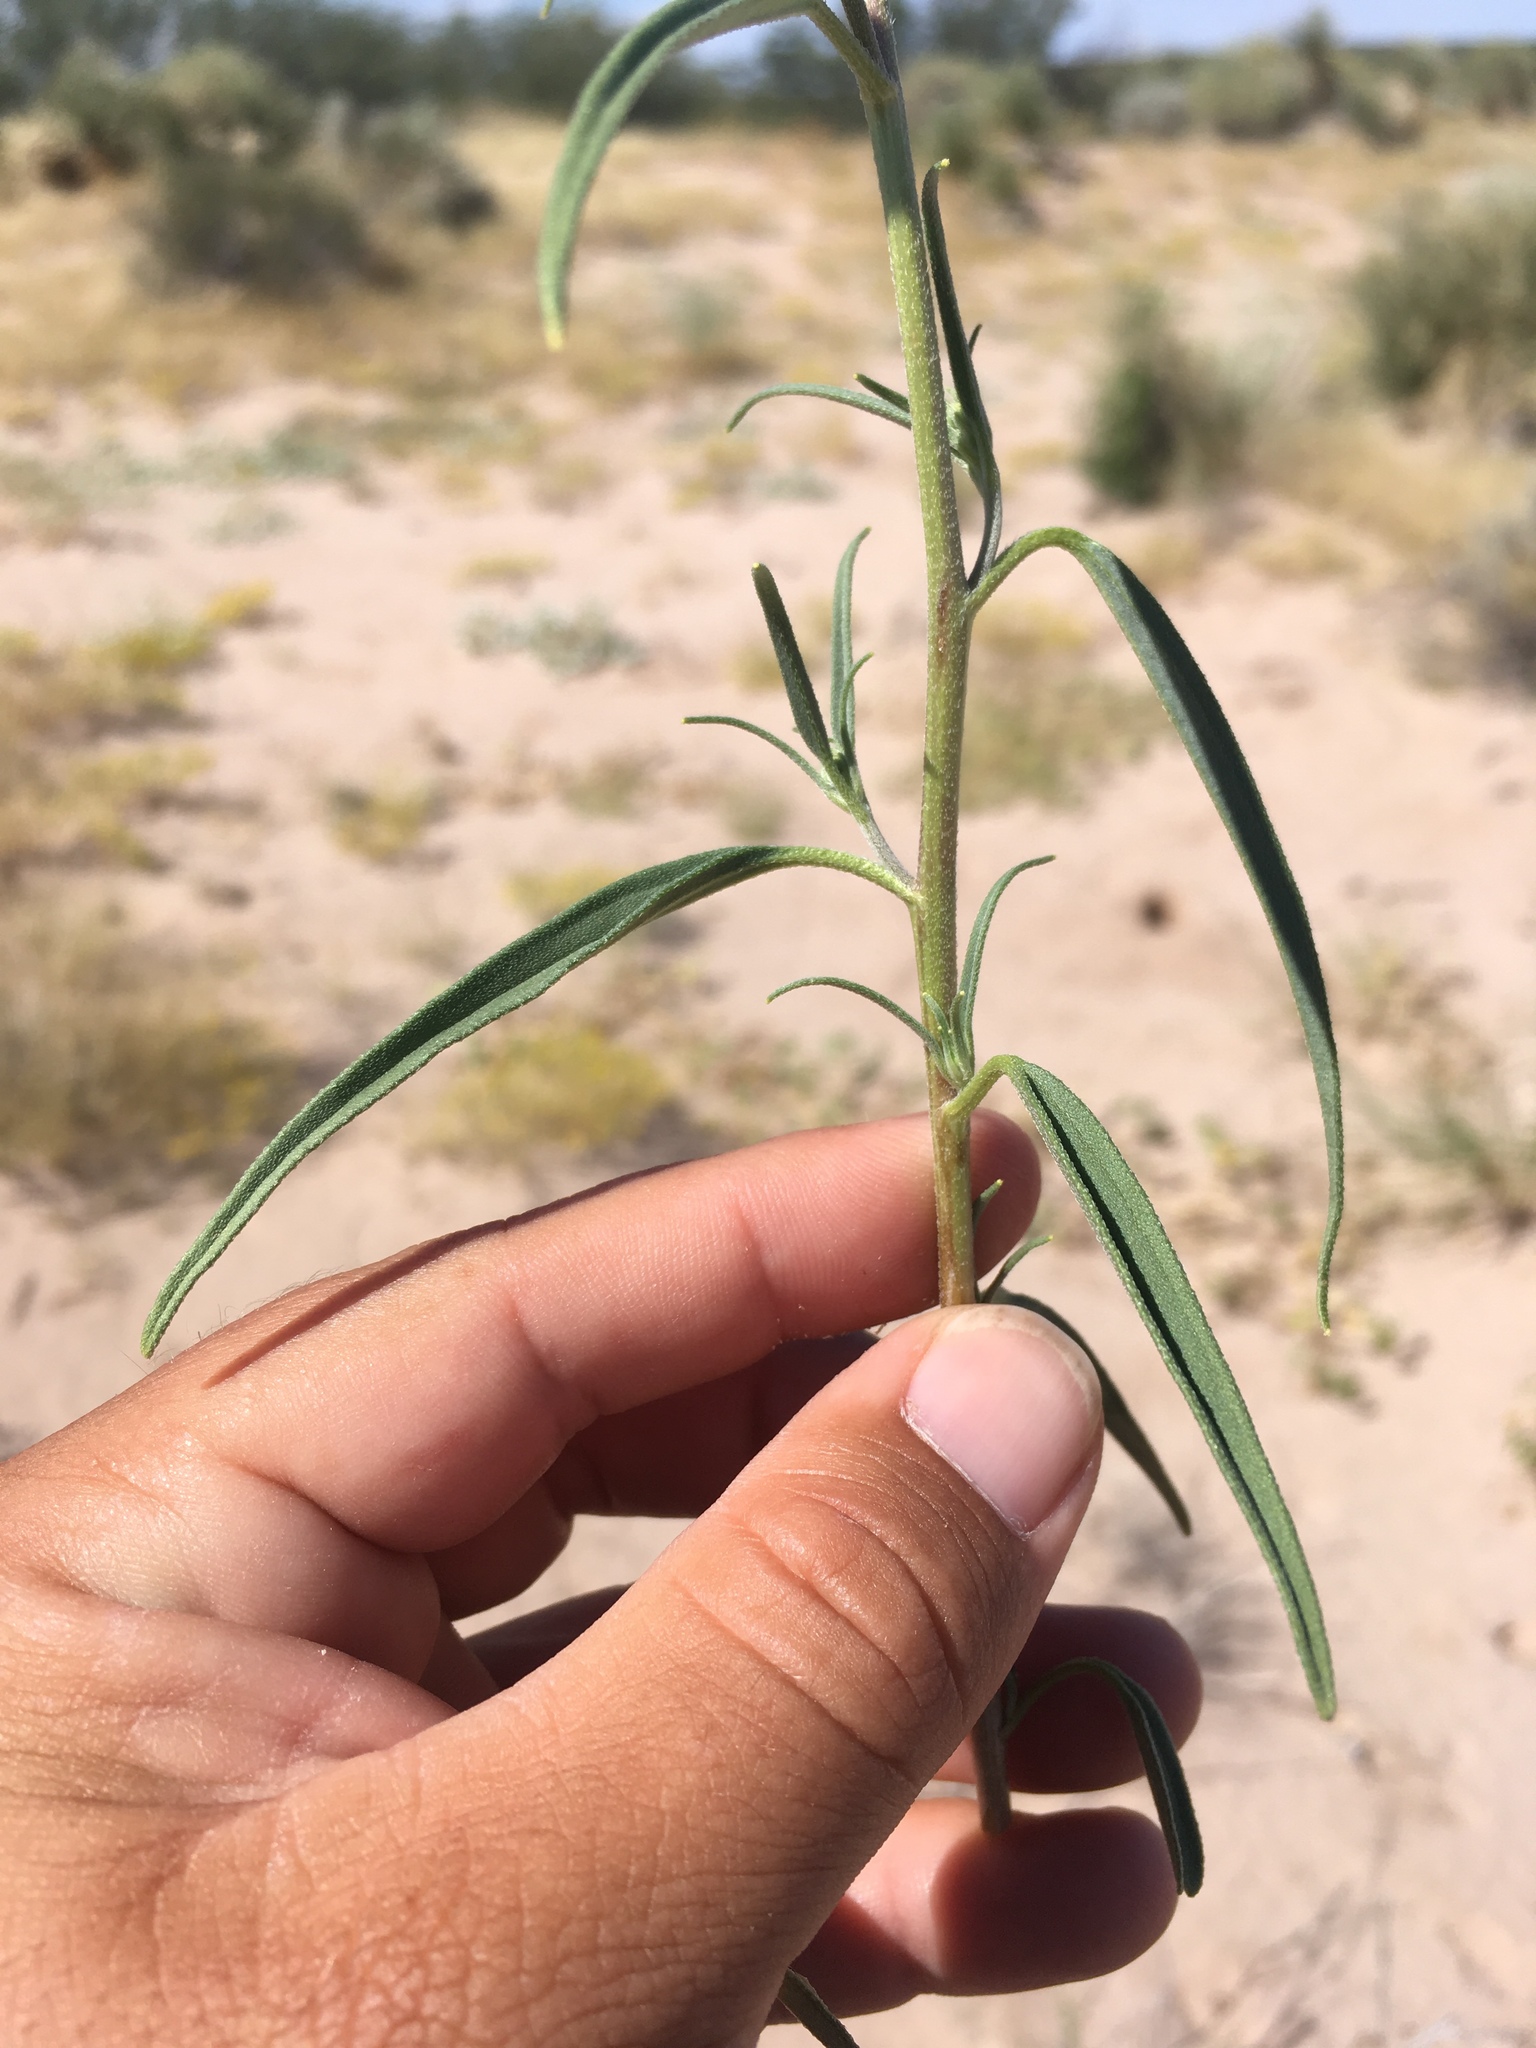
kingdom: Plantae
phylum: Tracheophyta
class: Magnoliopsida
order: Asterales
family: Asteraceae
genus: Palafoxia
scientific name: Palafoxia sphacelata
